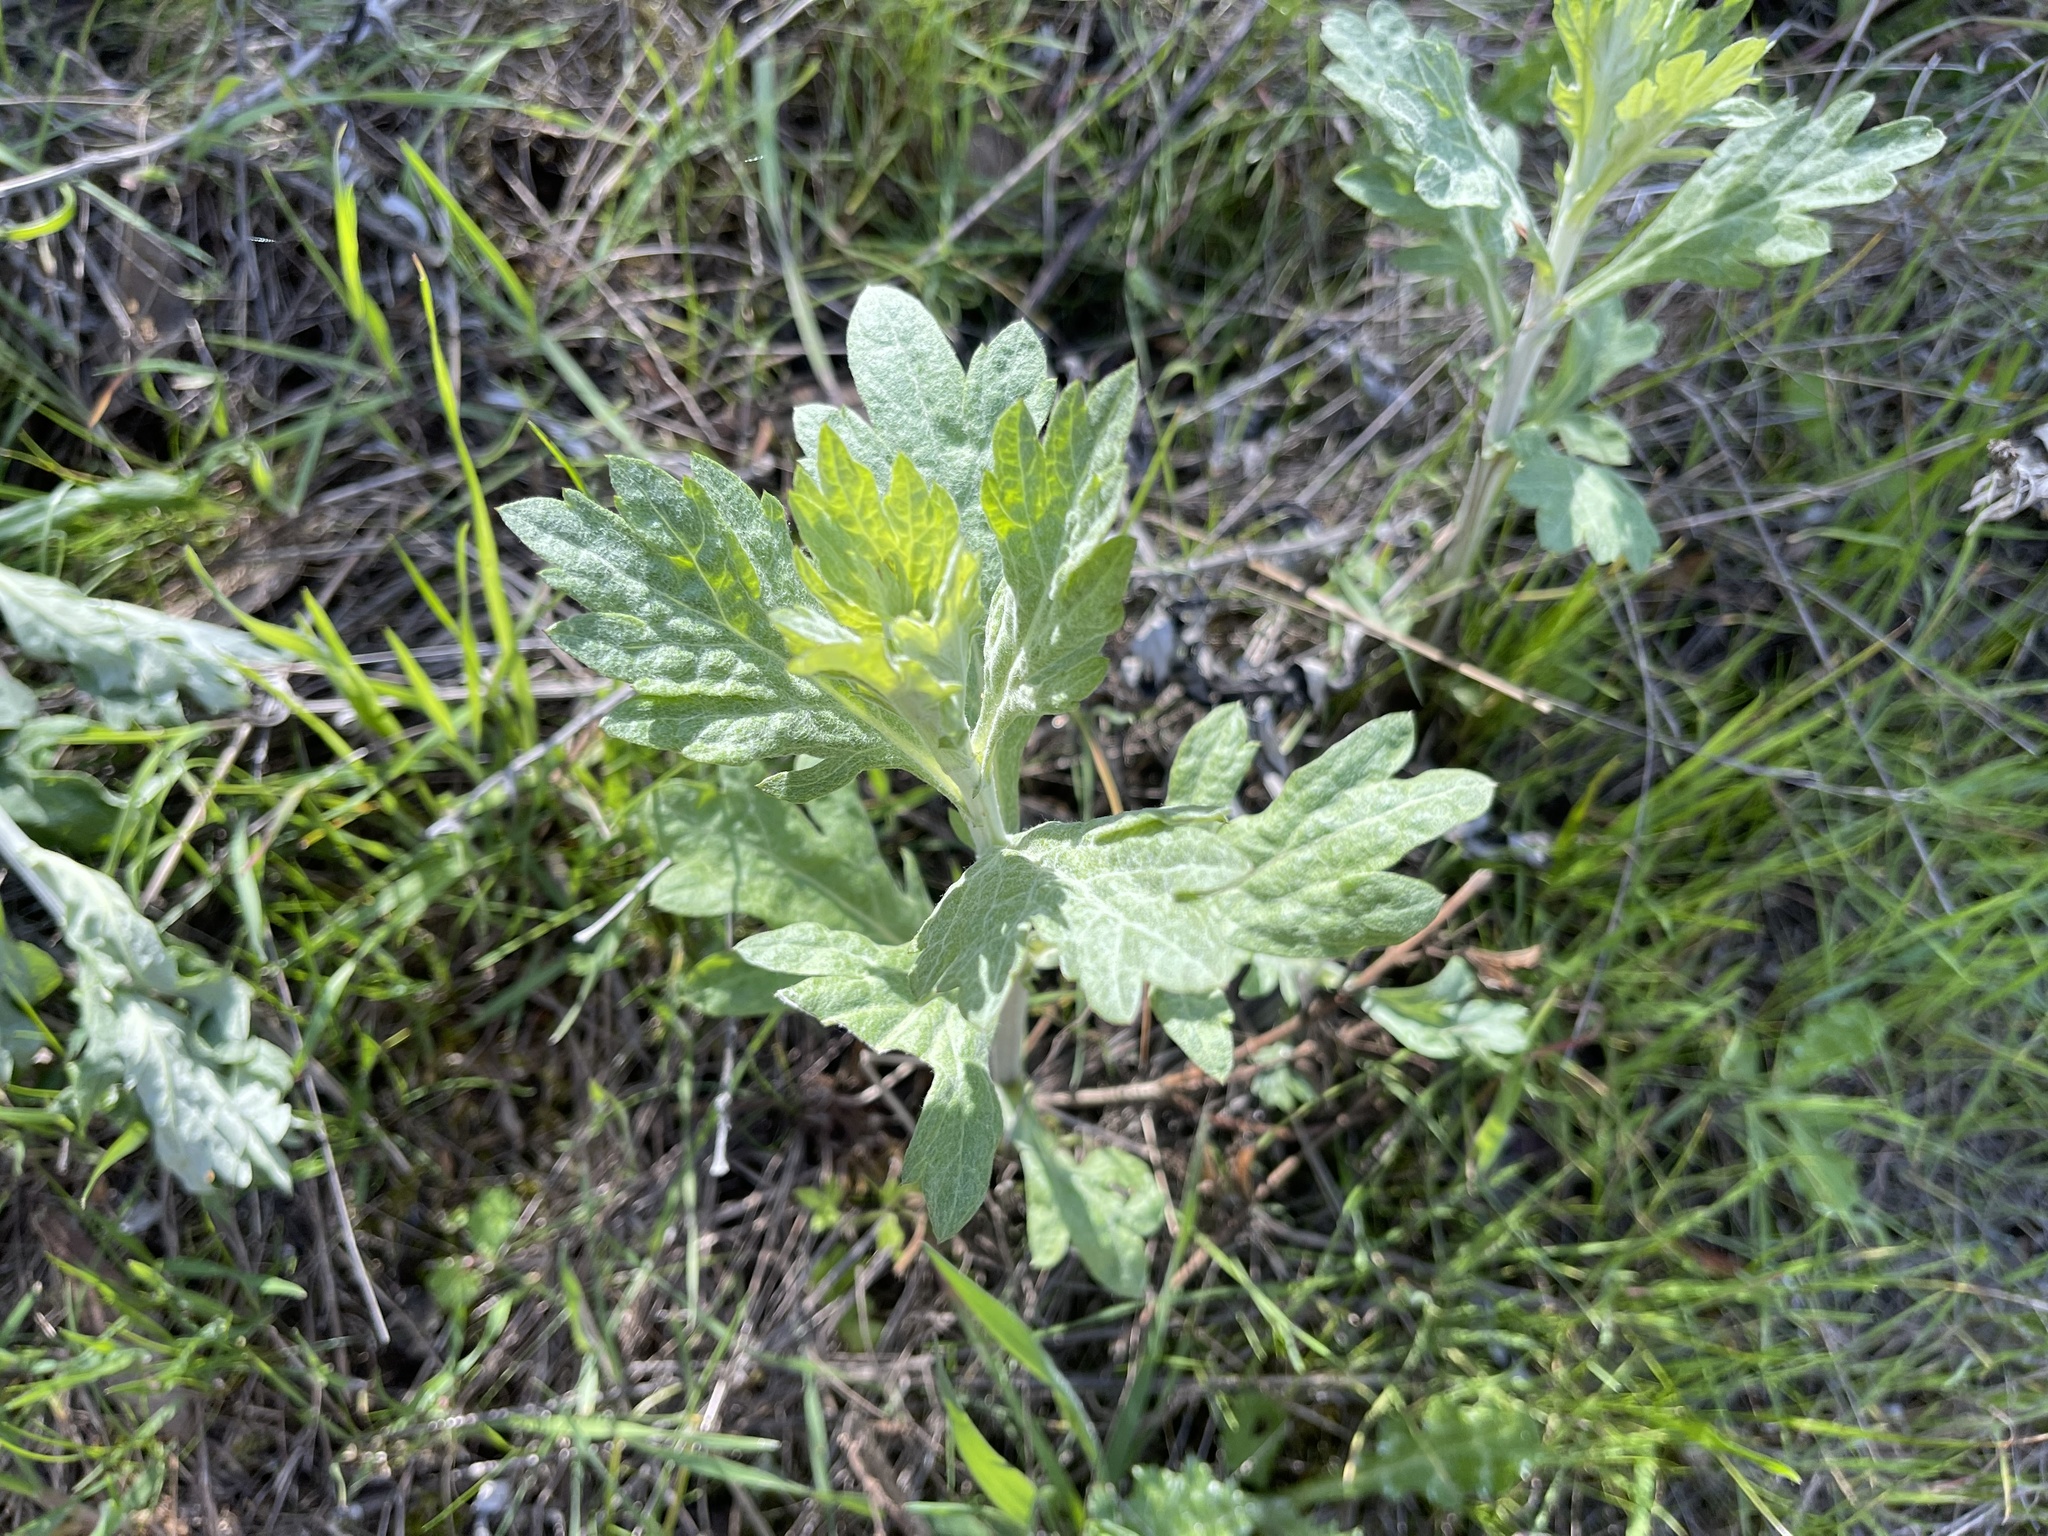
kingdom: Plantae
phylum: Tracheophyta
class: Magnoliopsida
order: Asterales
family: Asteraceae
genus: Artemisia
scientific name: Artemisia douglasiana
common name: Northwest mugwort
